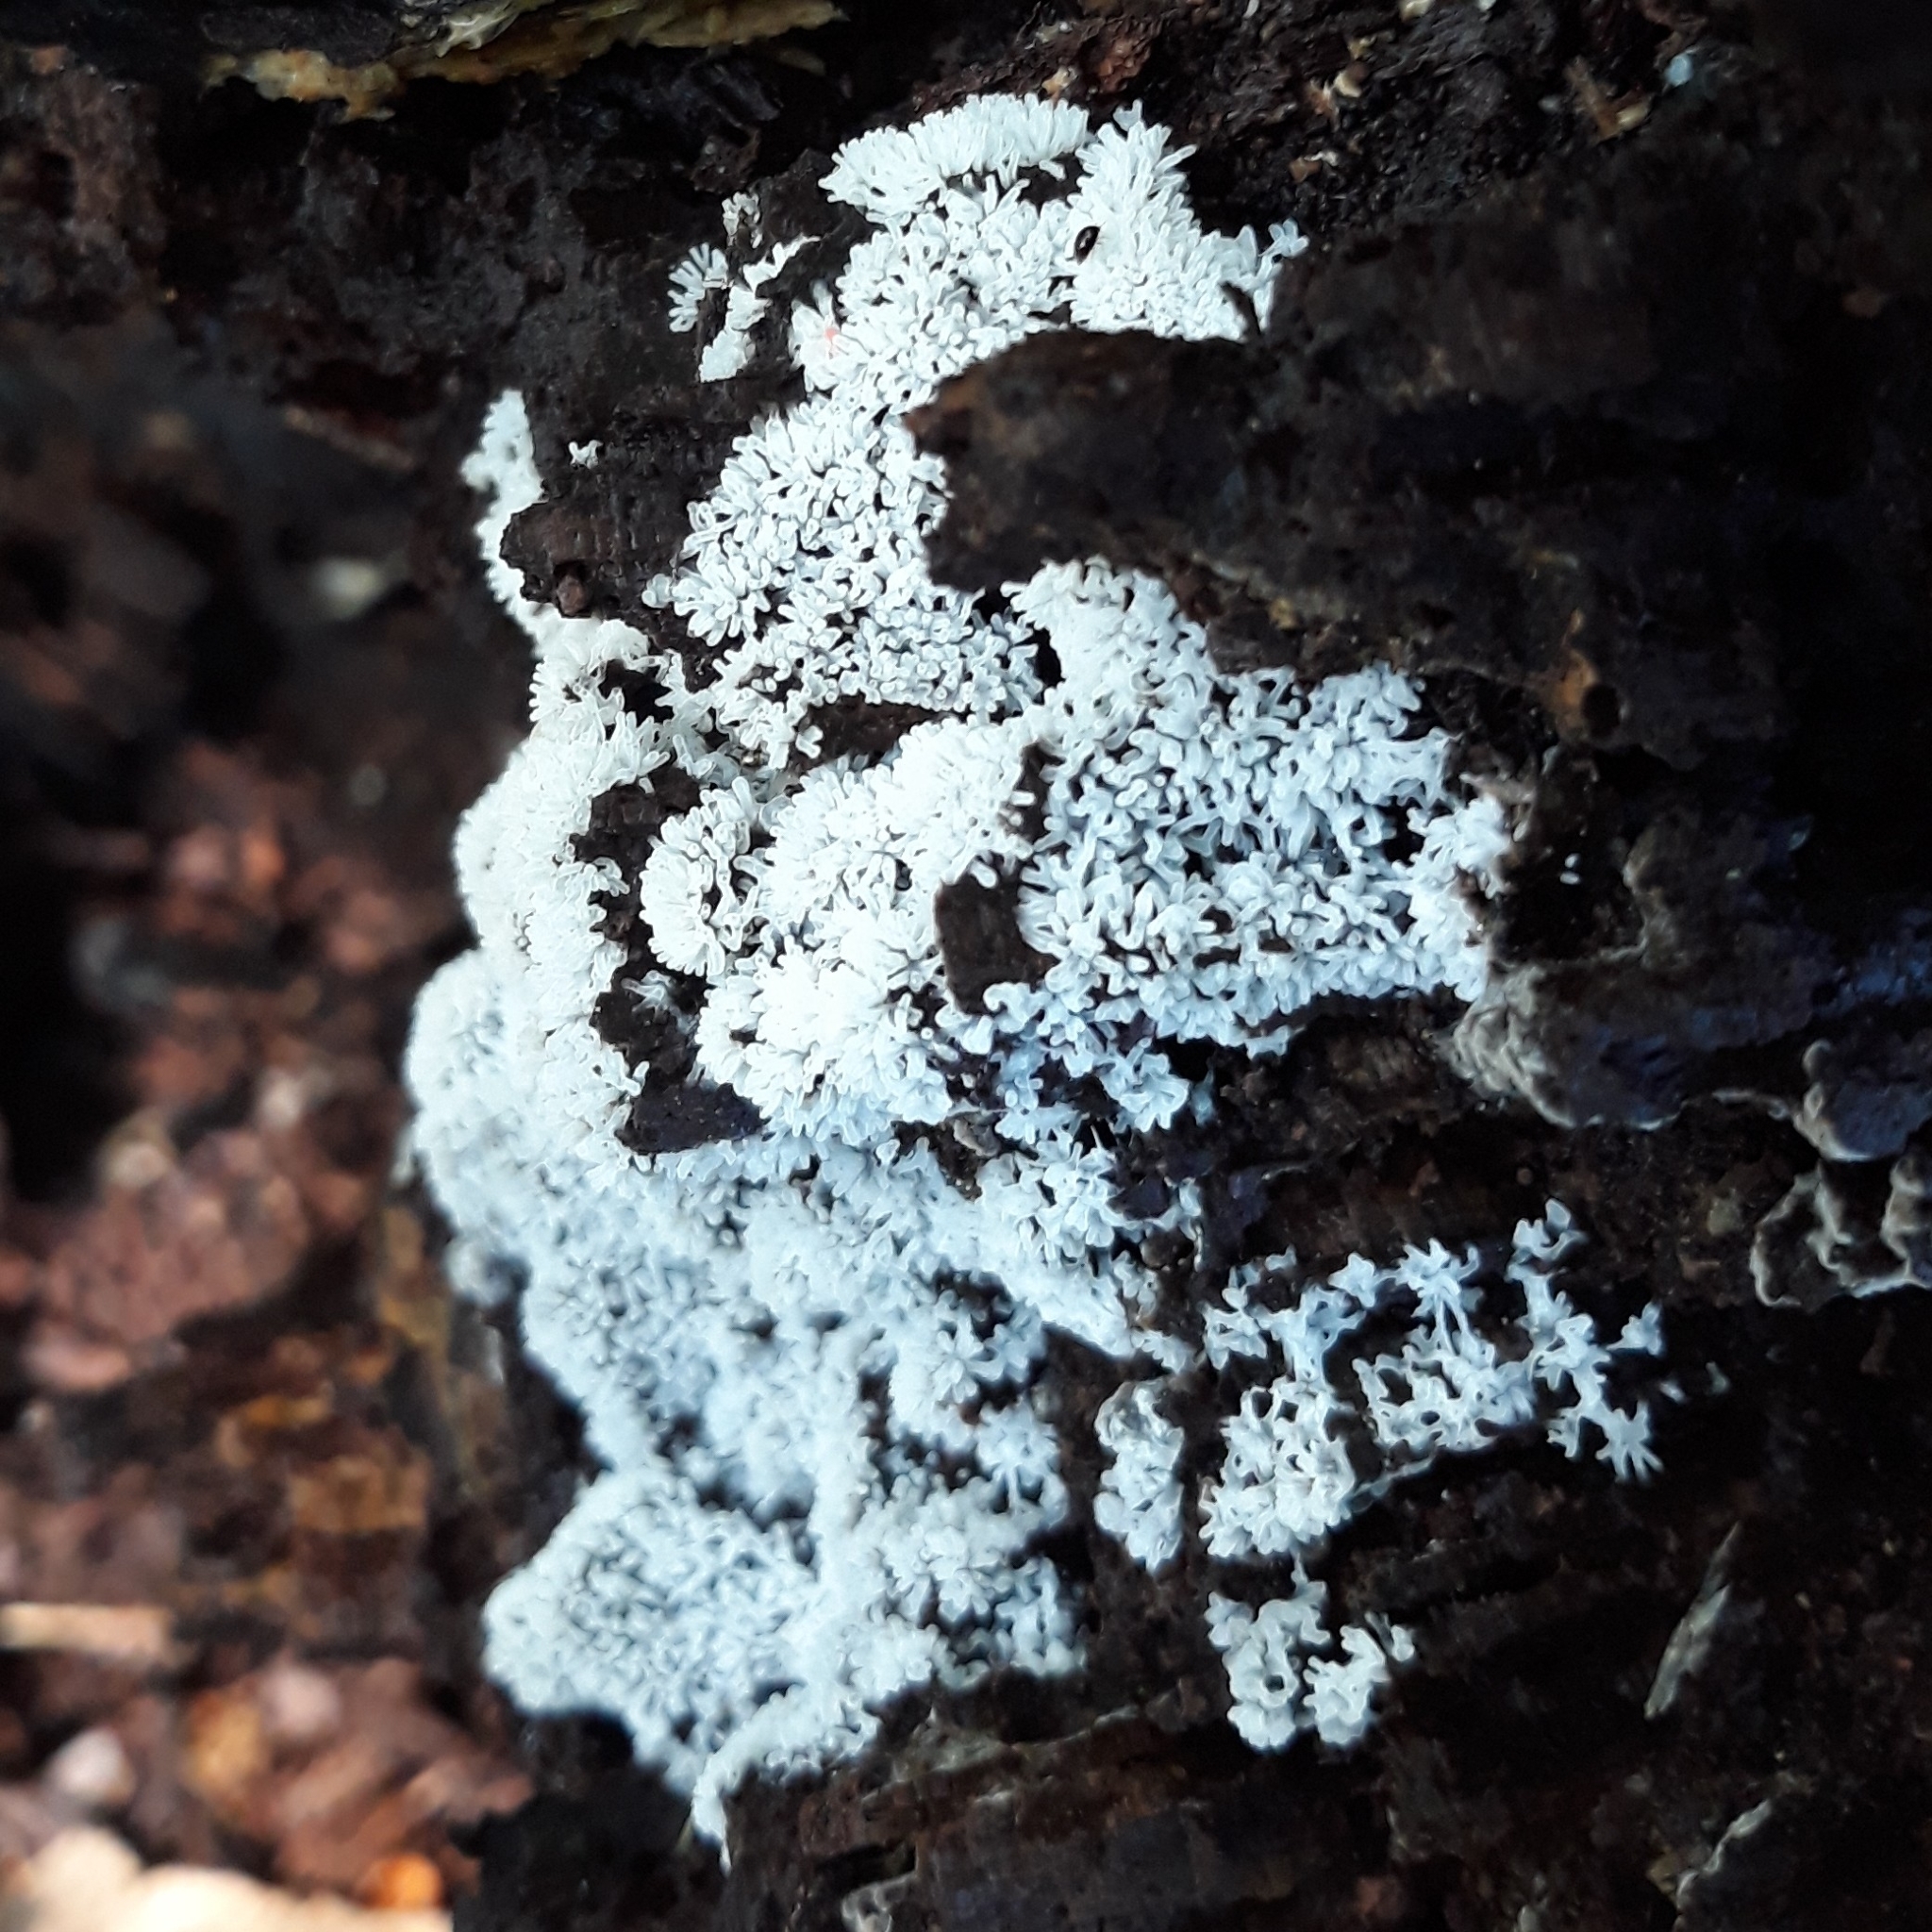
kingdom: Protozoa
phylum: Mycetozoa
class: Protosteliomycetes
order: Ceratiomyxales
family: Ceratiomyxaceae
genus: Ceratiomyxa
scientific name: Ceratiomyxa fruticulosa
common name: Honeycomb coral slime mold
